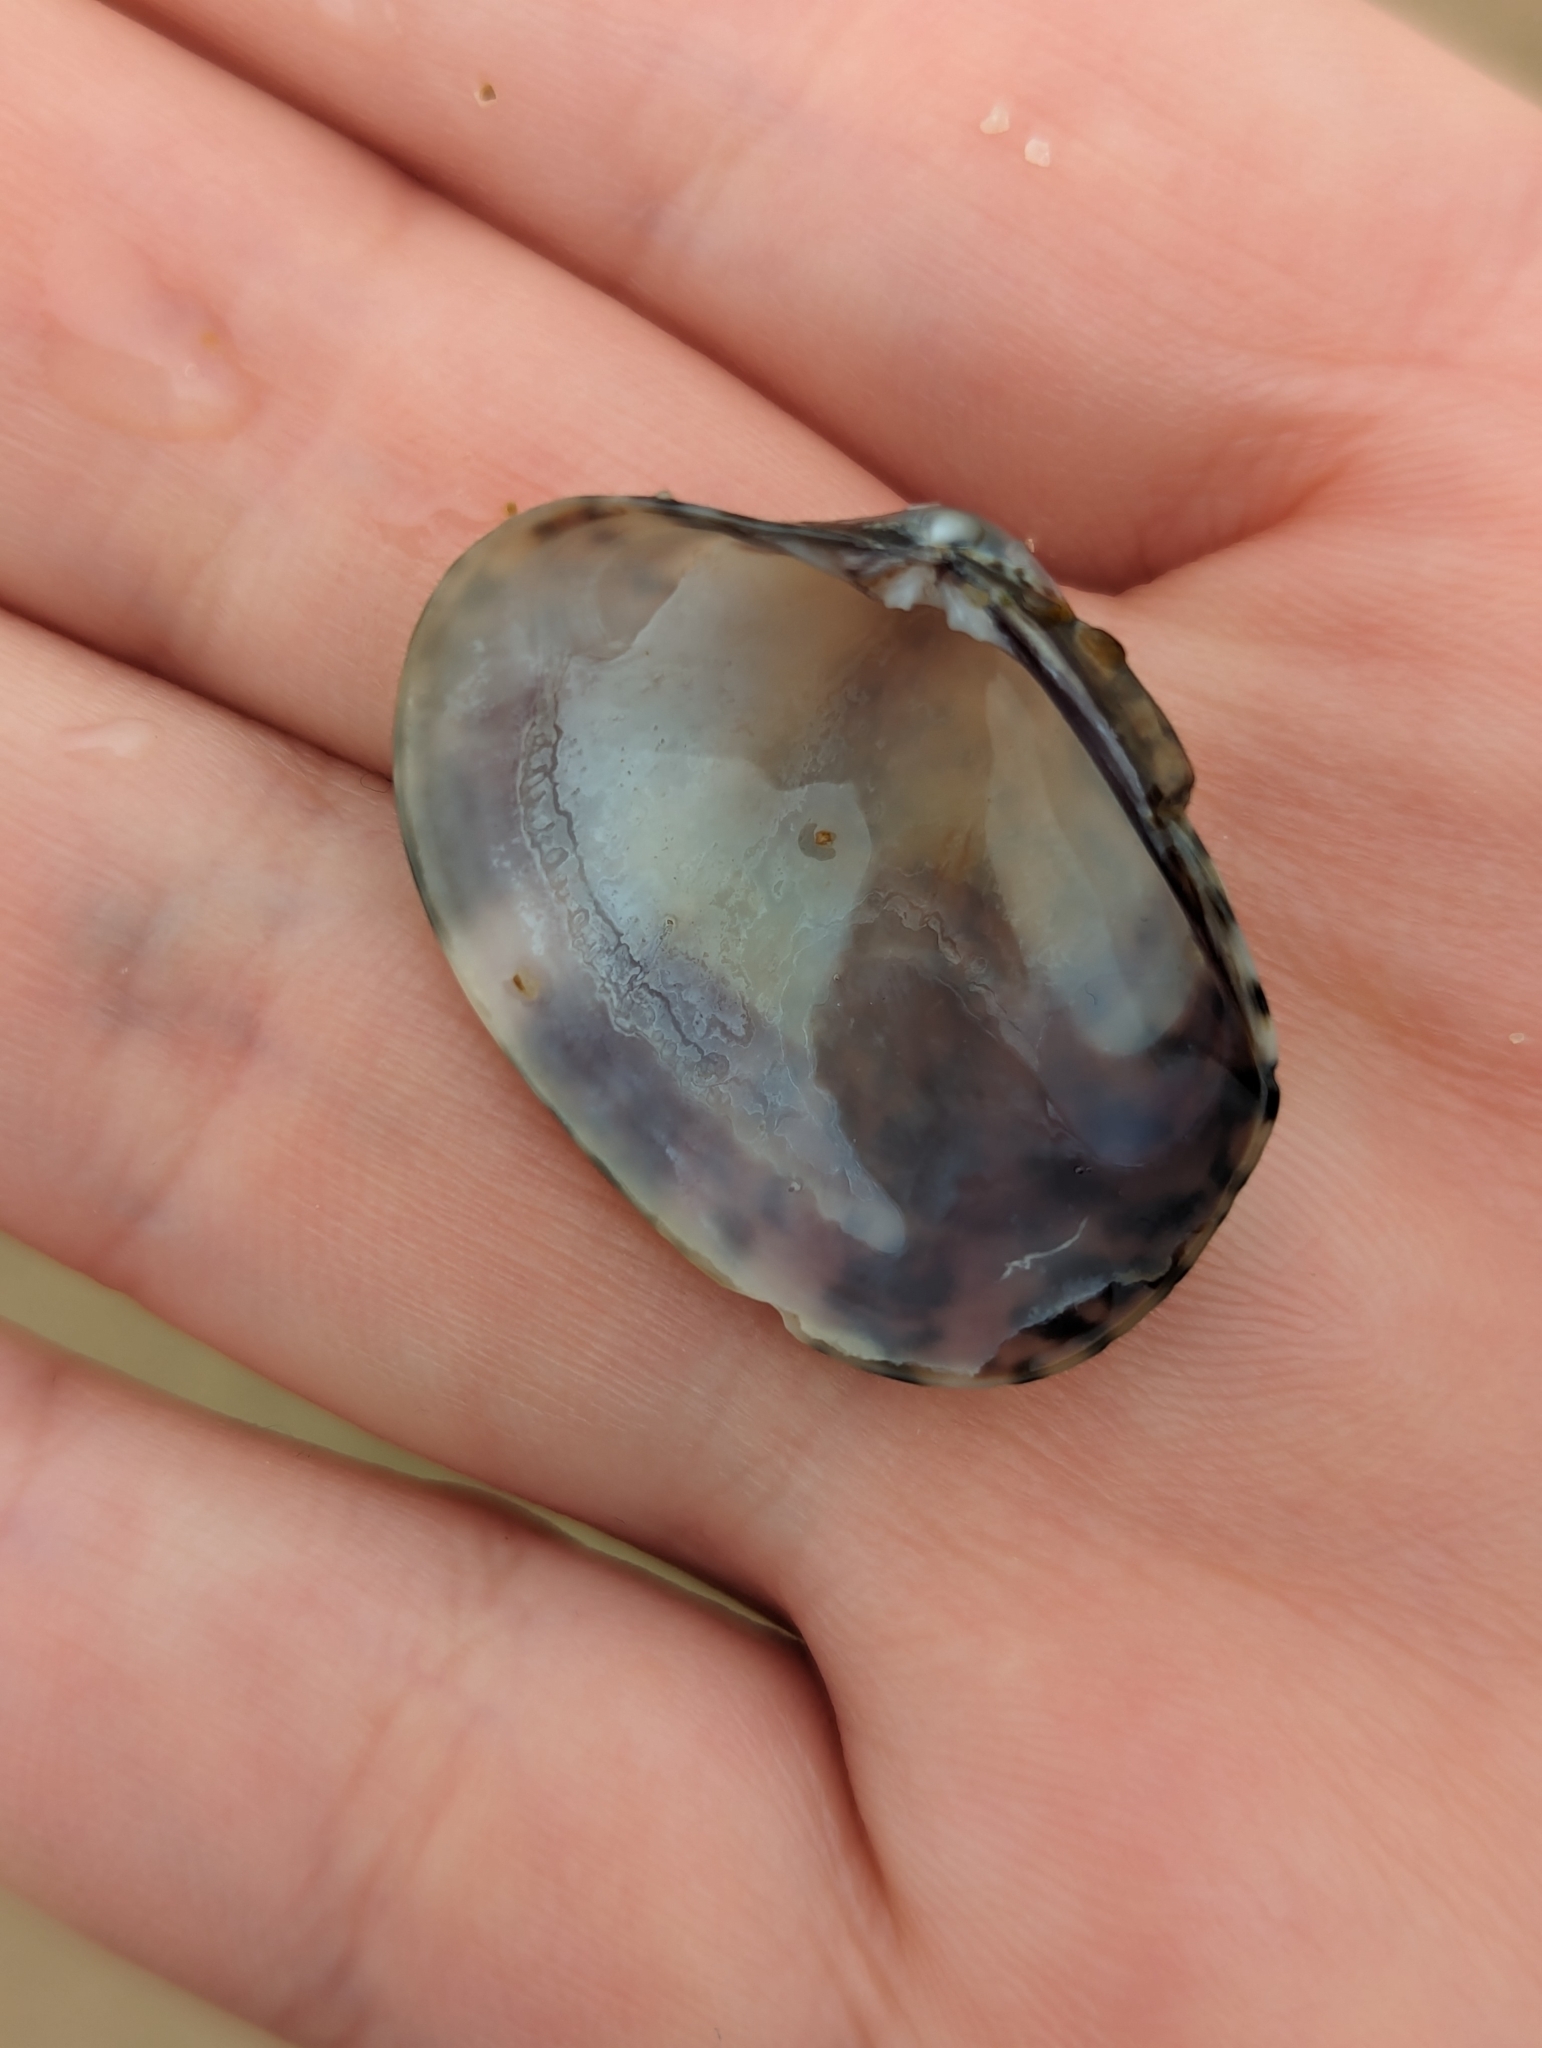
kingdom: Animalia
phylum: Mollusca
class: Bivalvia
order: Venerida
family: Veneridae
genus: Ruditapes
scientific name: Ruditapes philippinarum
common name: Manila clam
